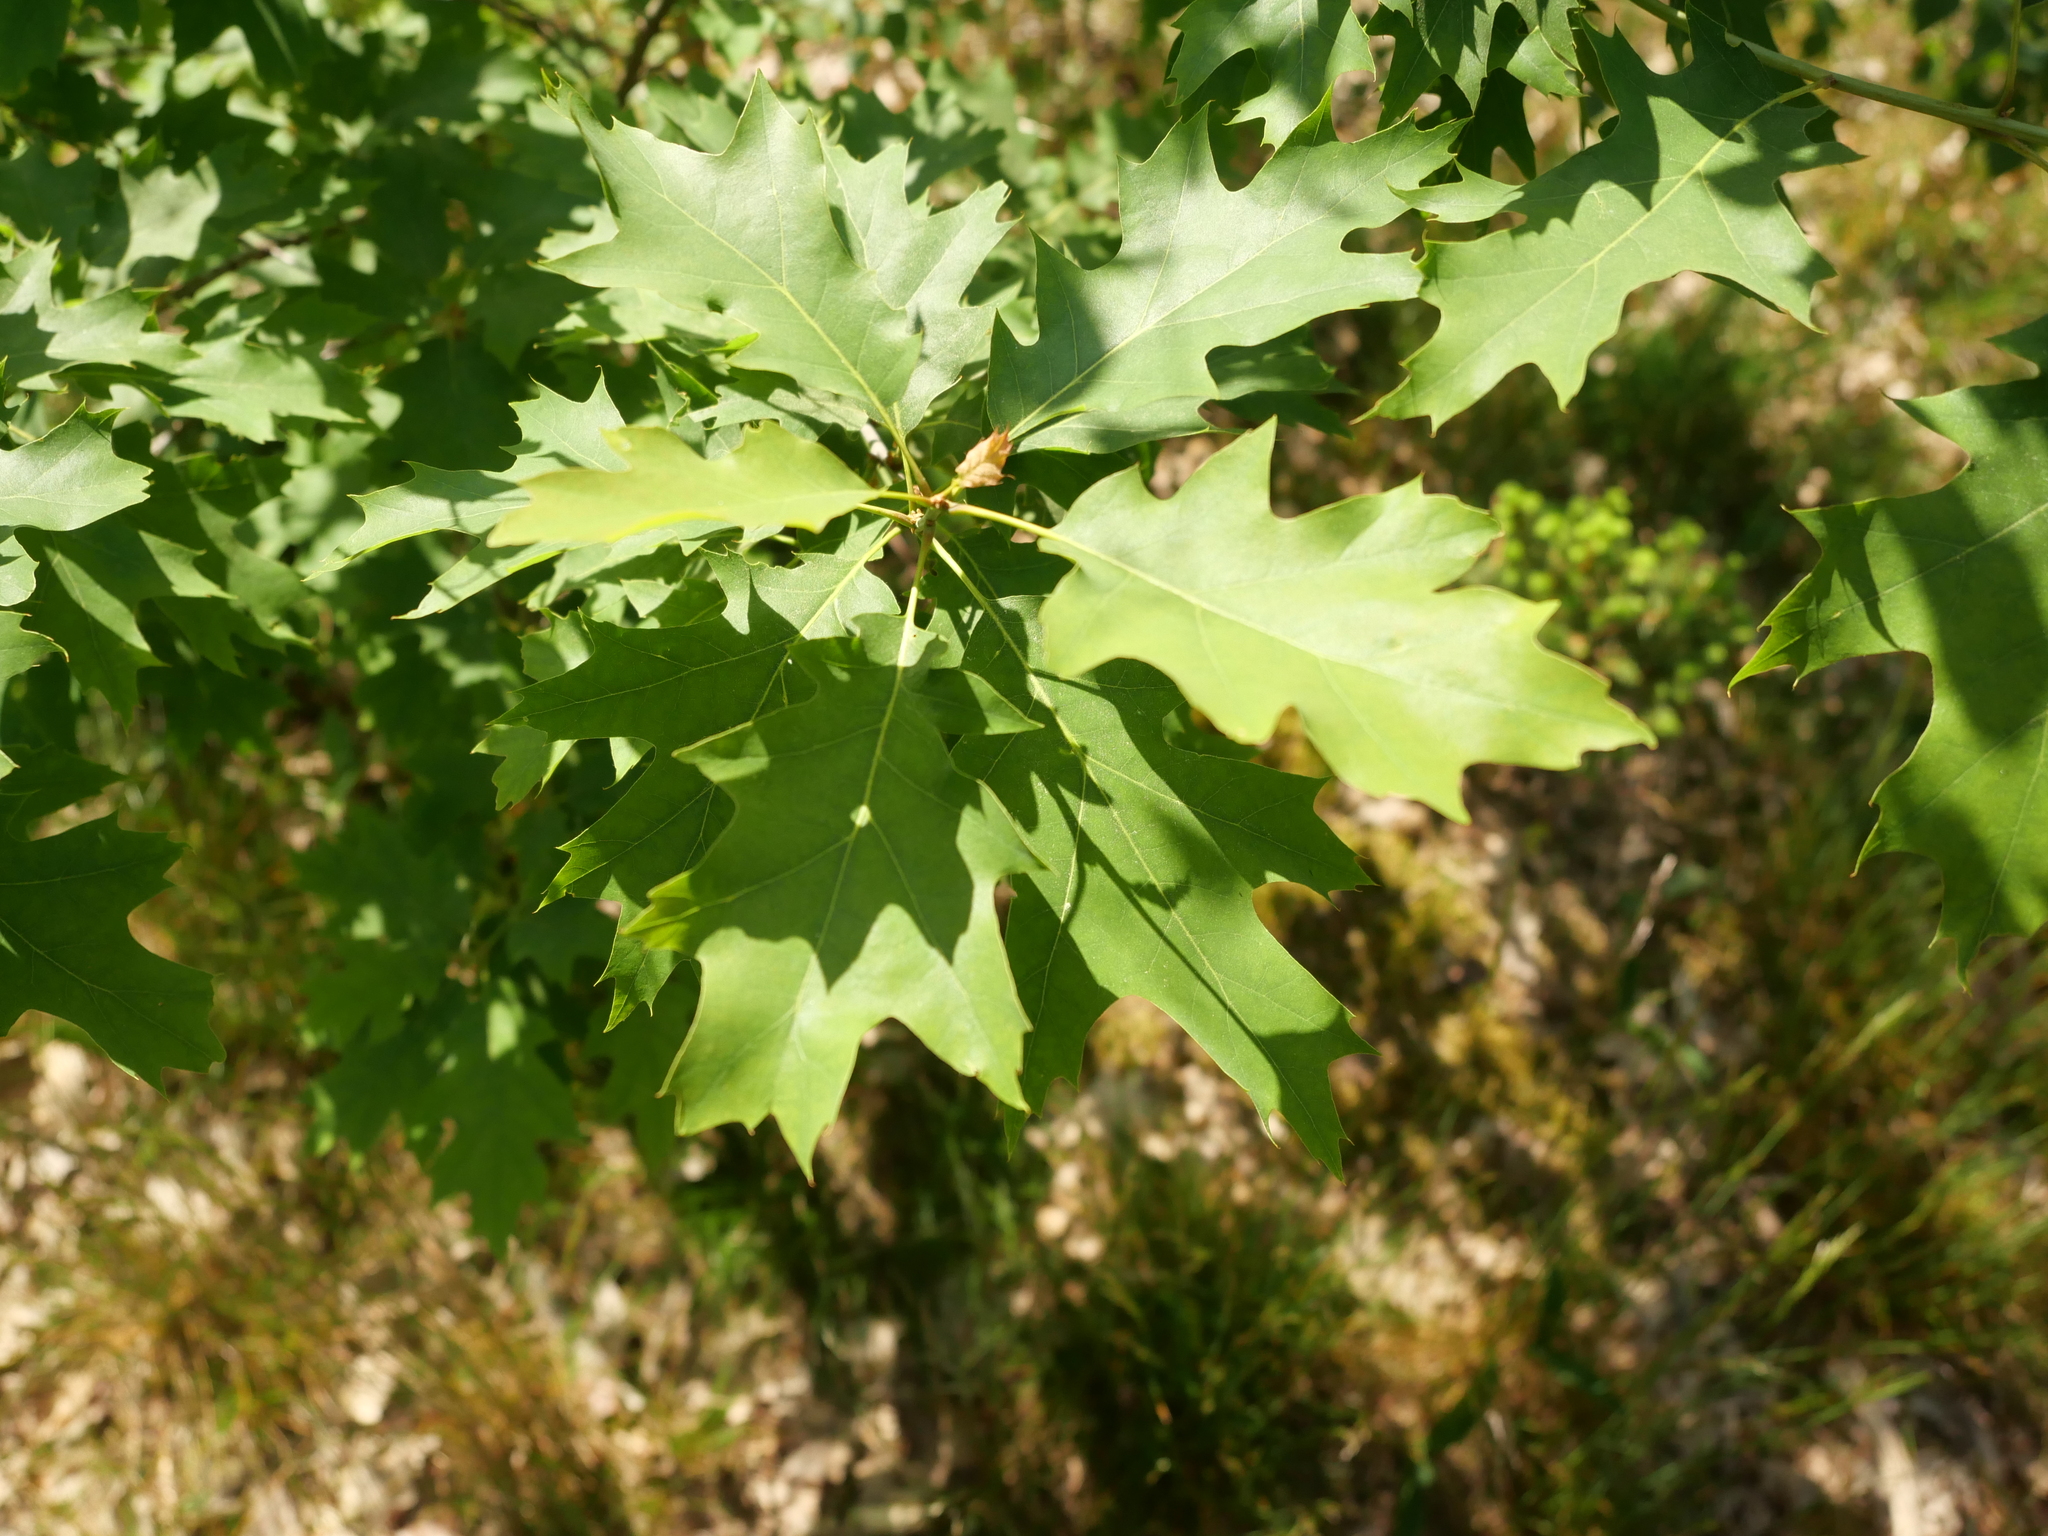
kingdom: Plantae
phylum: Tracheophyta
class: Magnoliopsida
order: Fagales
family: Fagaceae
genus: Quercus
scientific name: Quercus rubra
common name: Red oak
